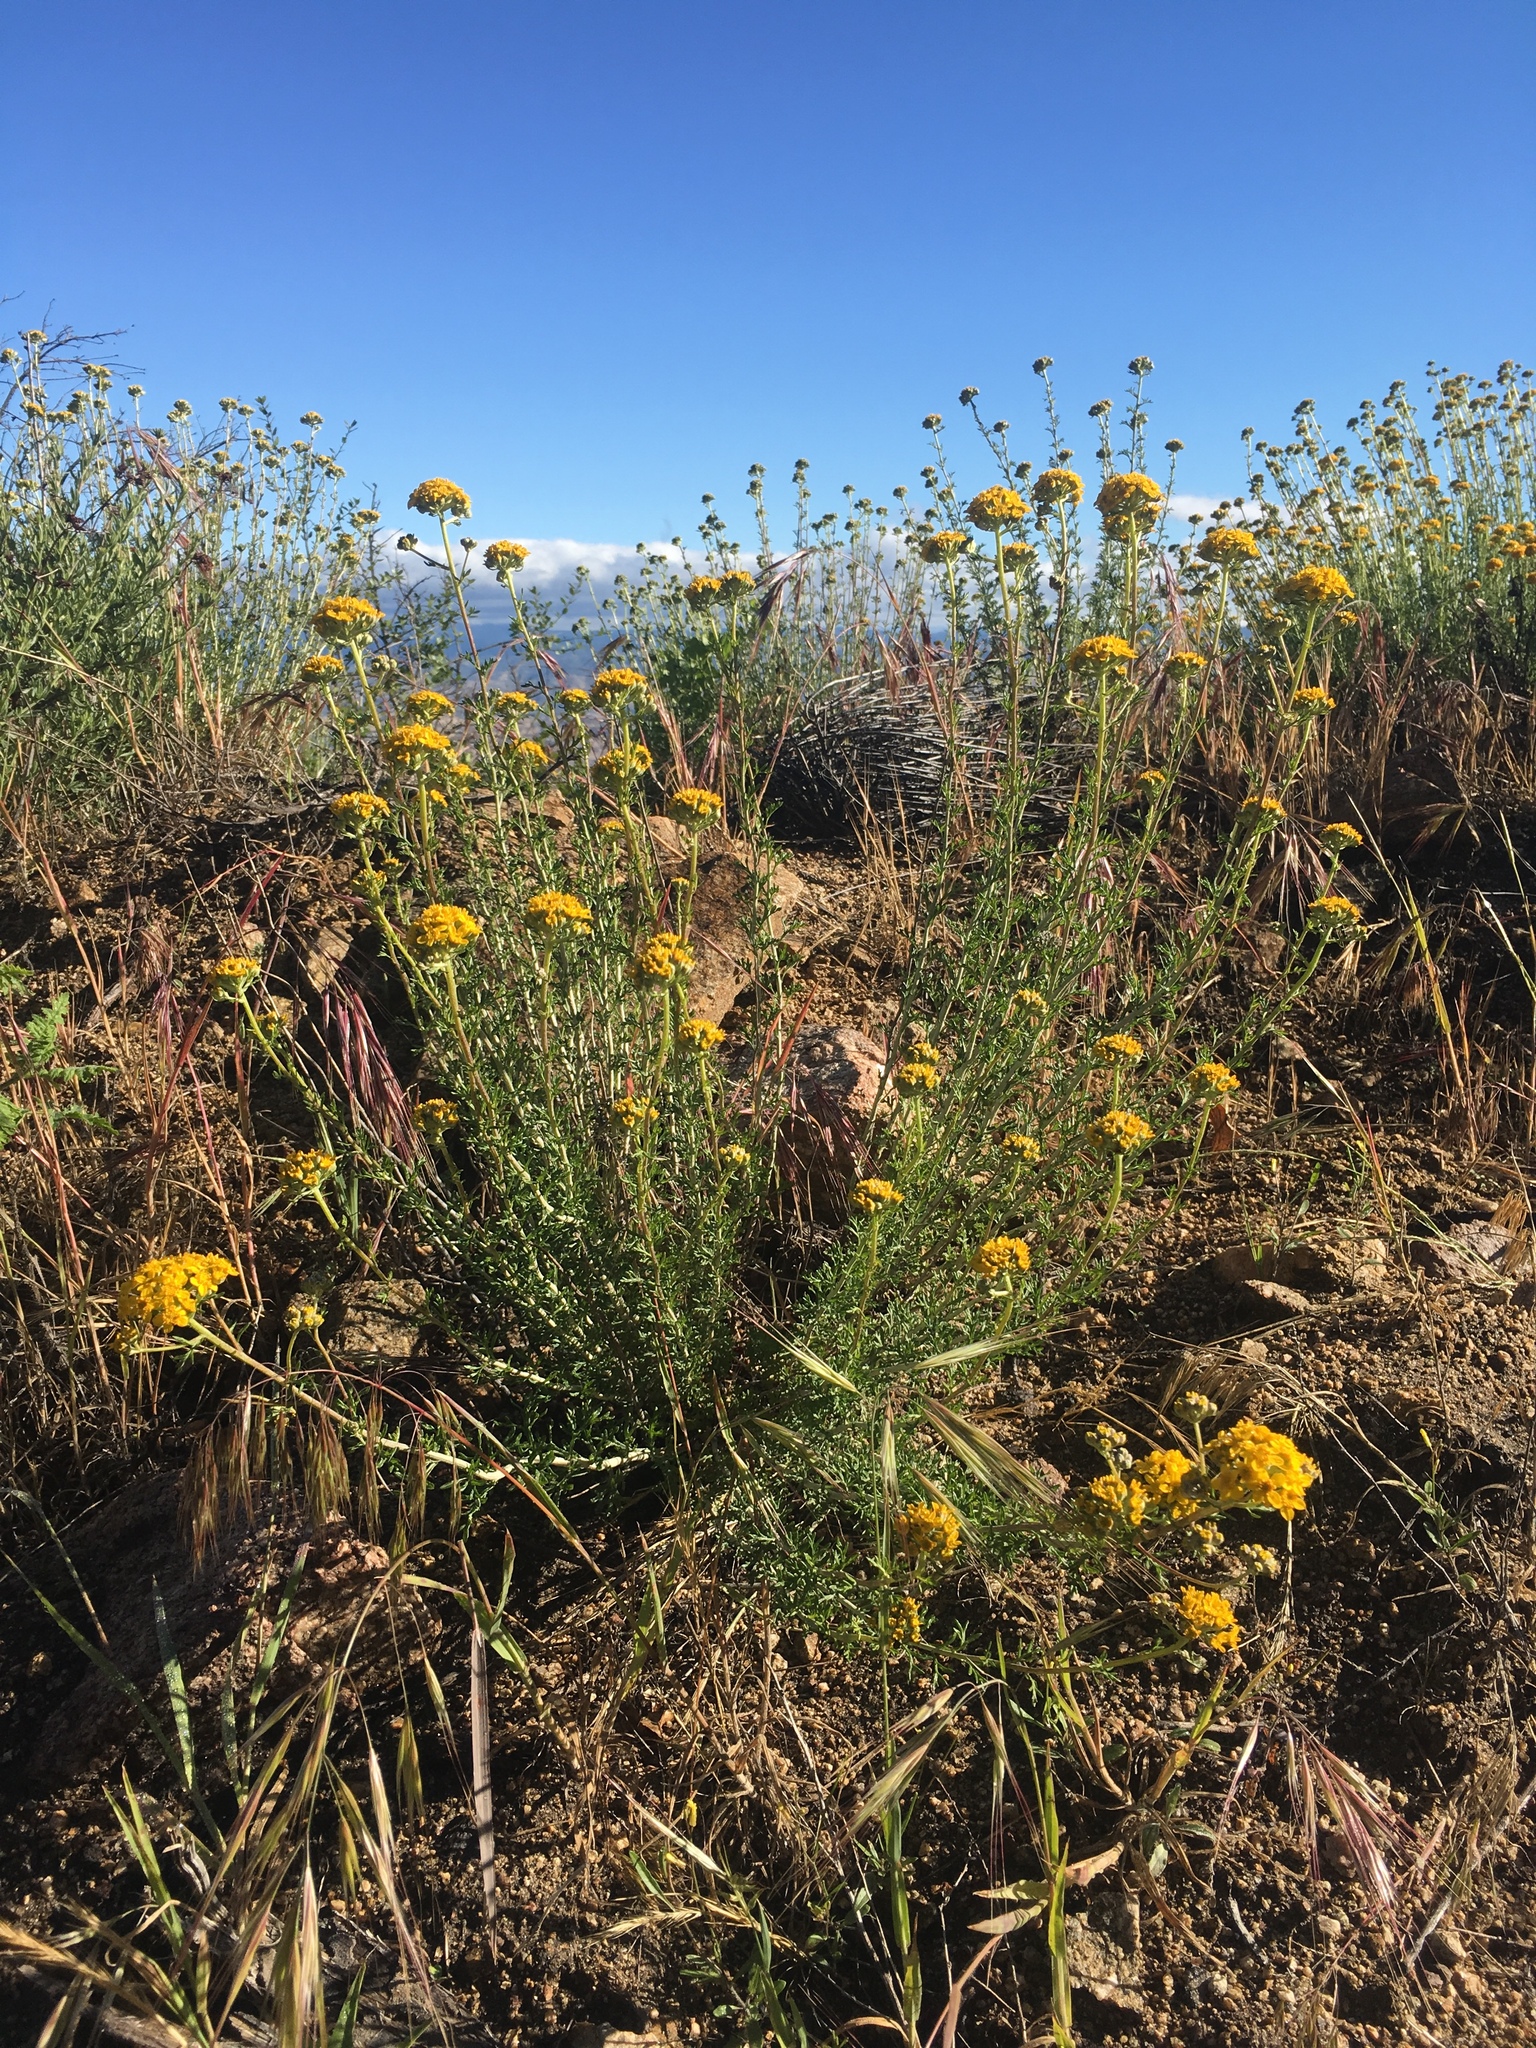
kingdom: Plantae
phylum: Tracheophyta
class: Magnoliopsida
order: Asterales
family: Asteraceae
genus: Eriophyllum
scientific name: Eriophyllum confertiflorum
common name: Golden-yarrow
